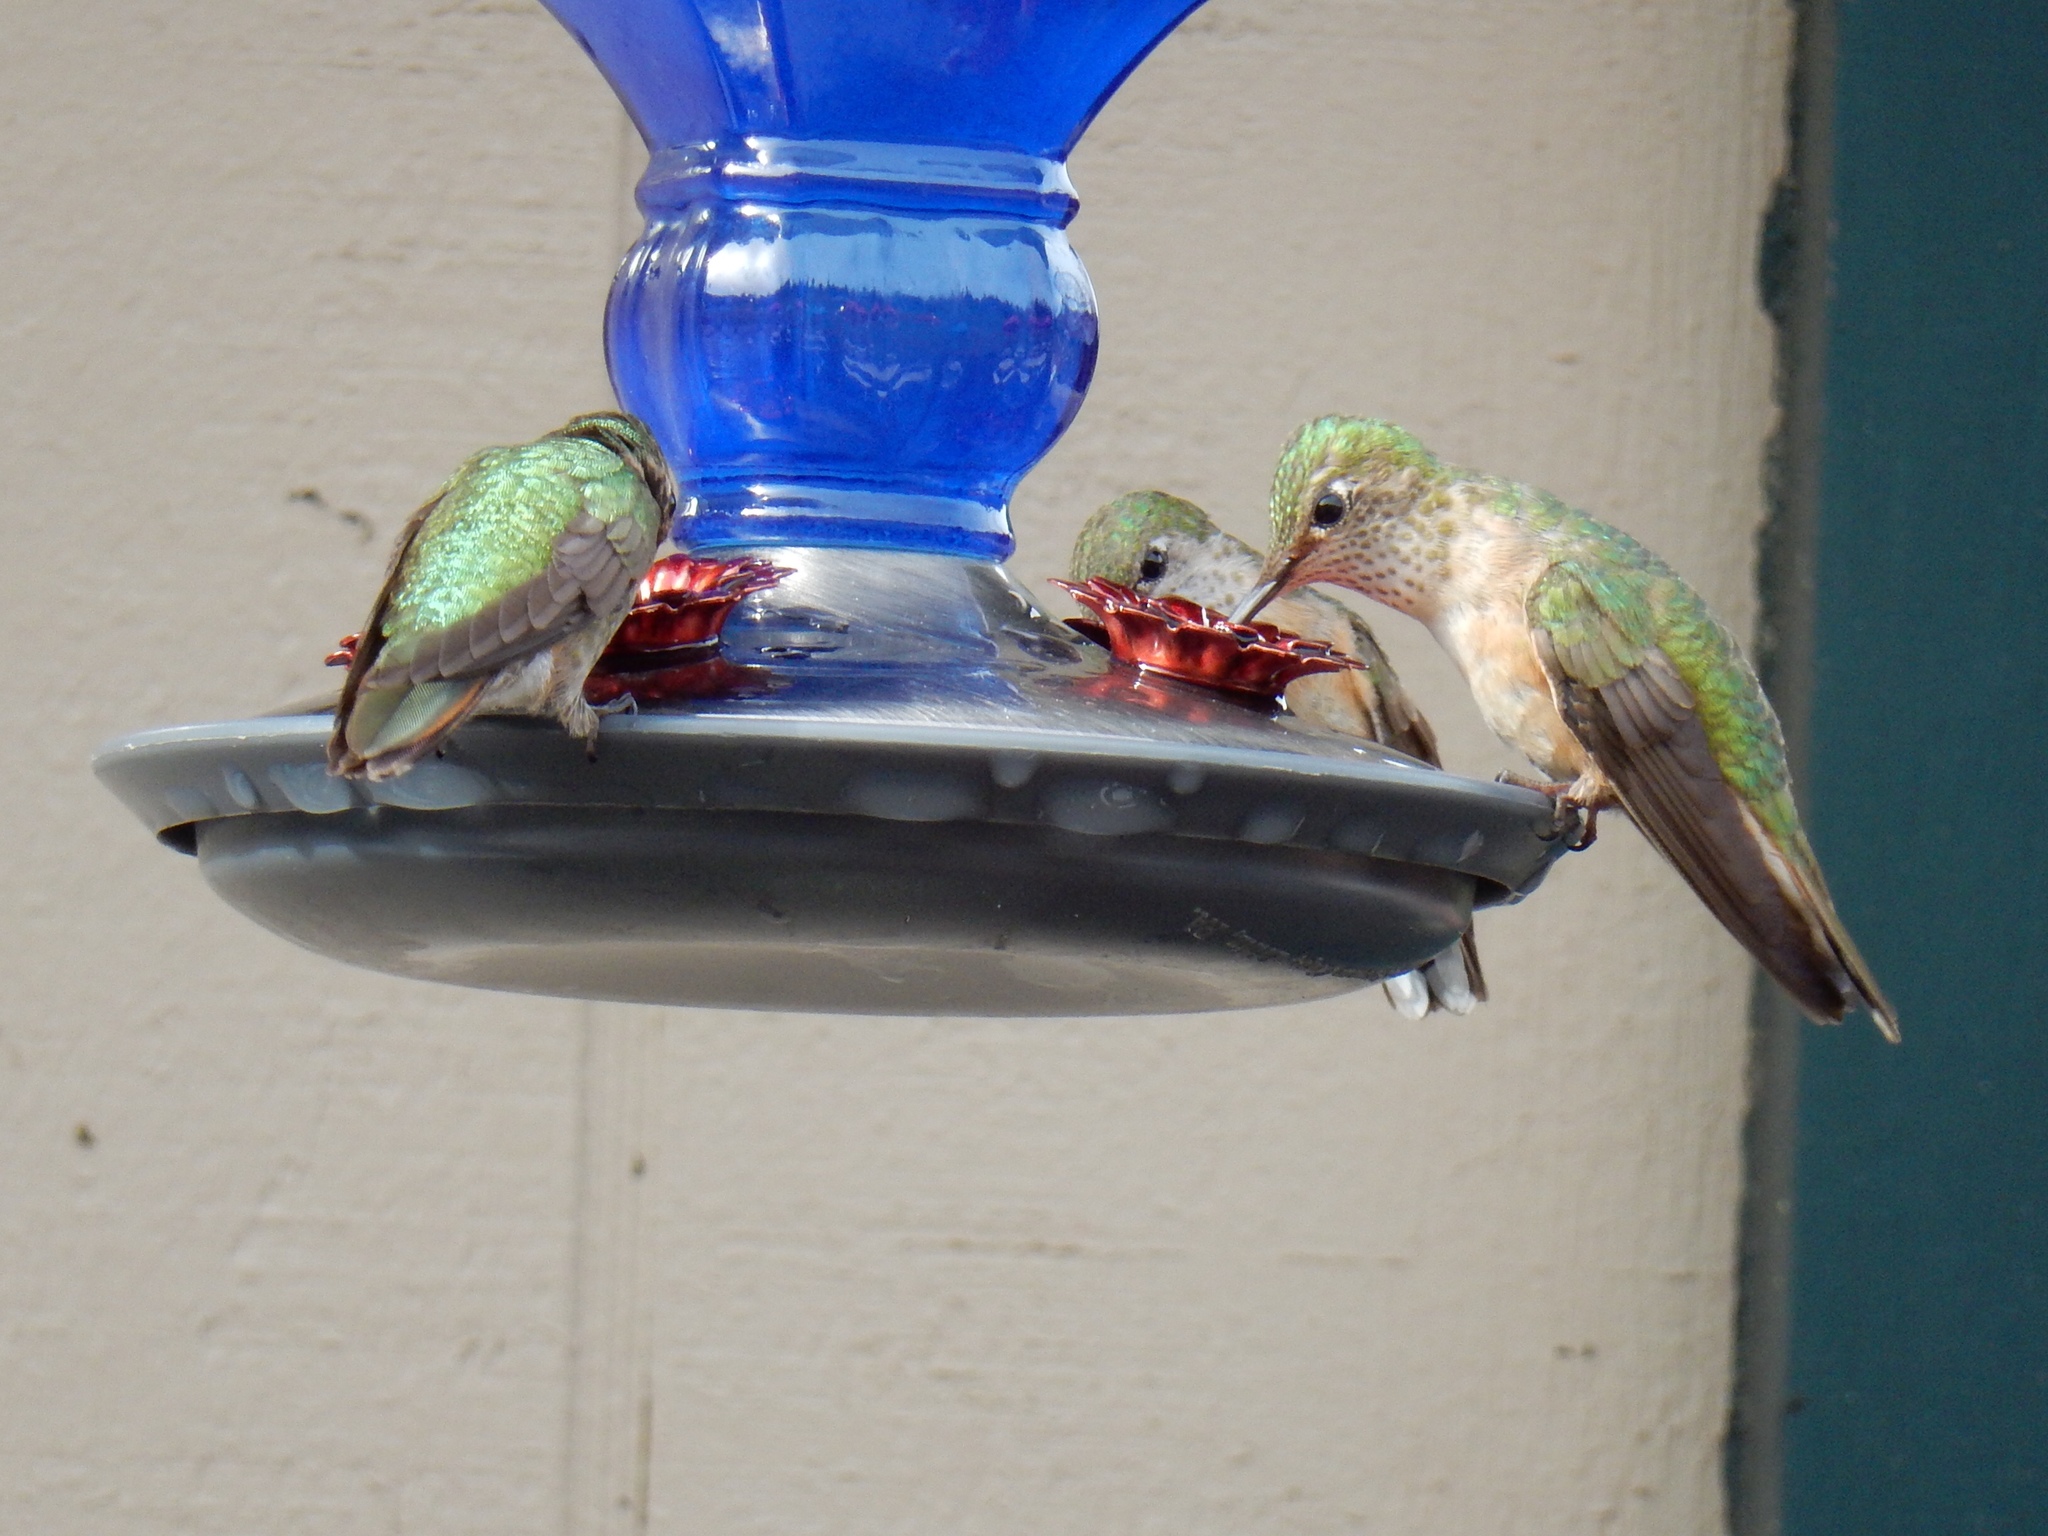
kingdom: Animalia
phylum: Chordata
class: Aves
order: Apodiformes
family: Trochilidae
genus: Selasphorus
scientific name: Selasphorus platycercus
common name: Broad-tailed hummingbird
